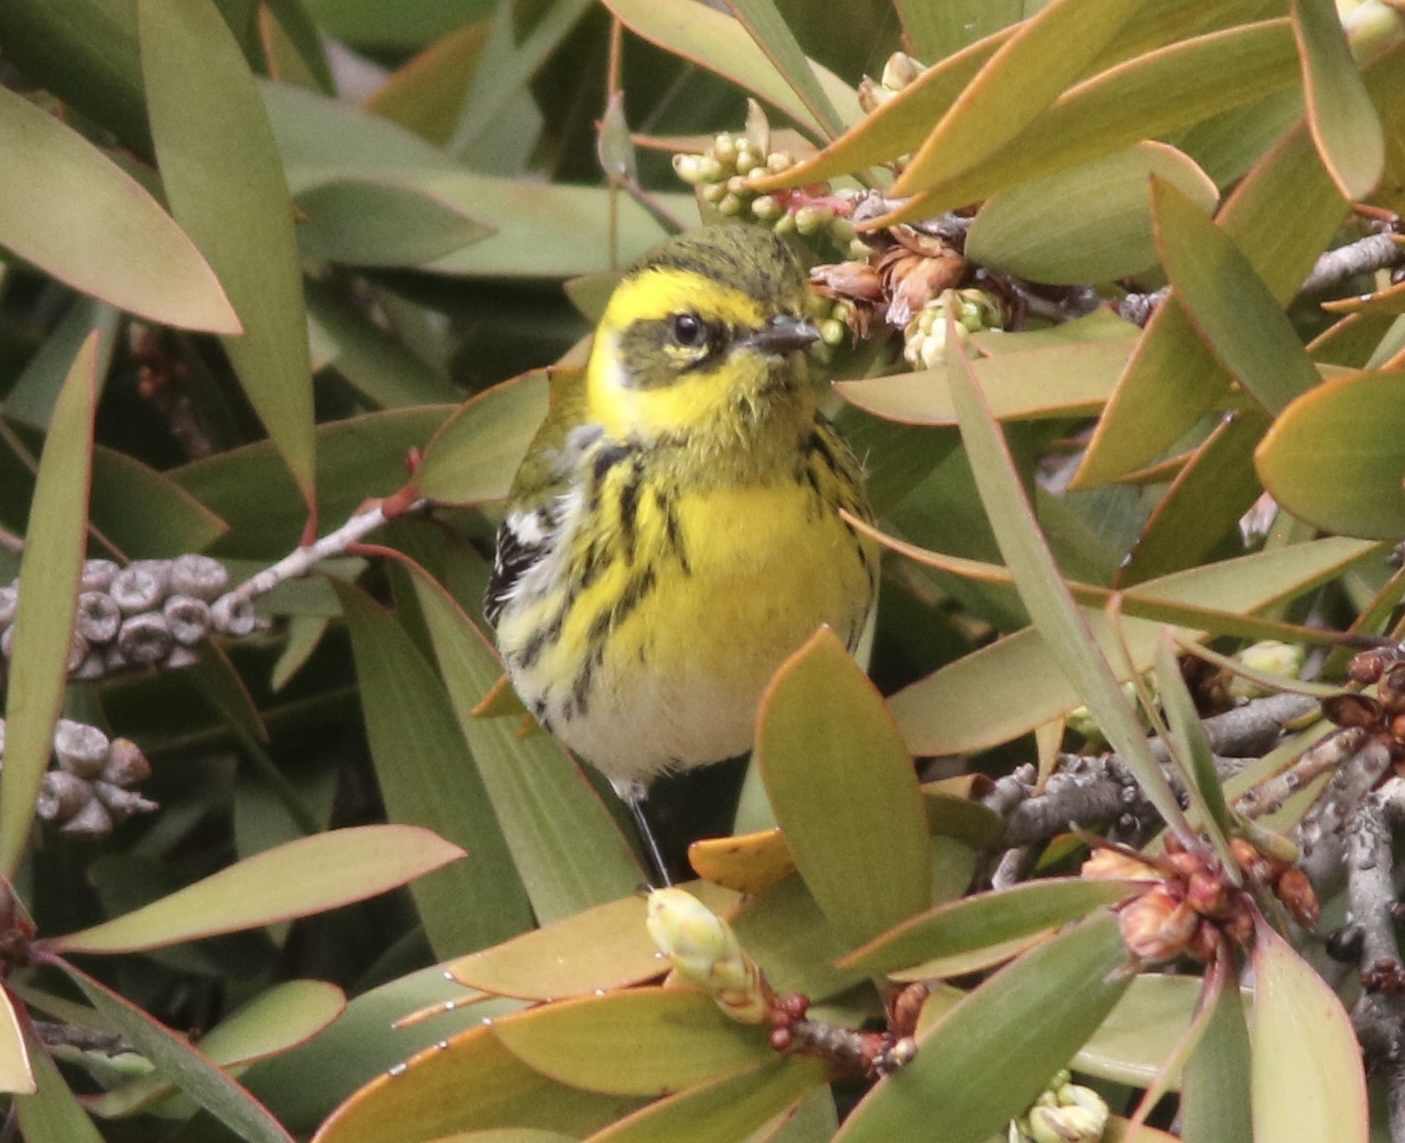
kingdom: Animalia
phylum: Chordata
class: Aves
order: Passeriformes
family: Parulidae
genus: Setophaga
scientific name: Setophaga townsendi
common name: Townsend's warbler
